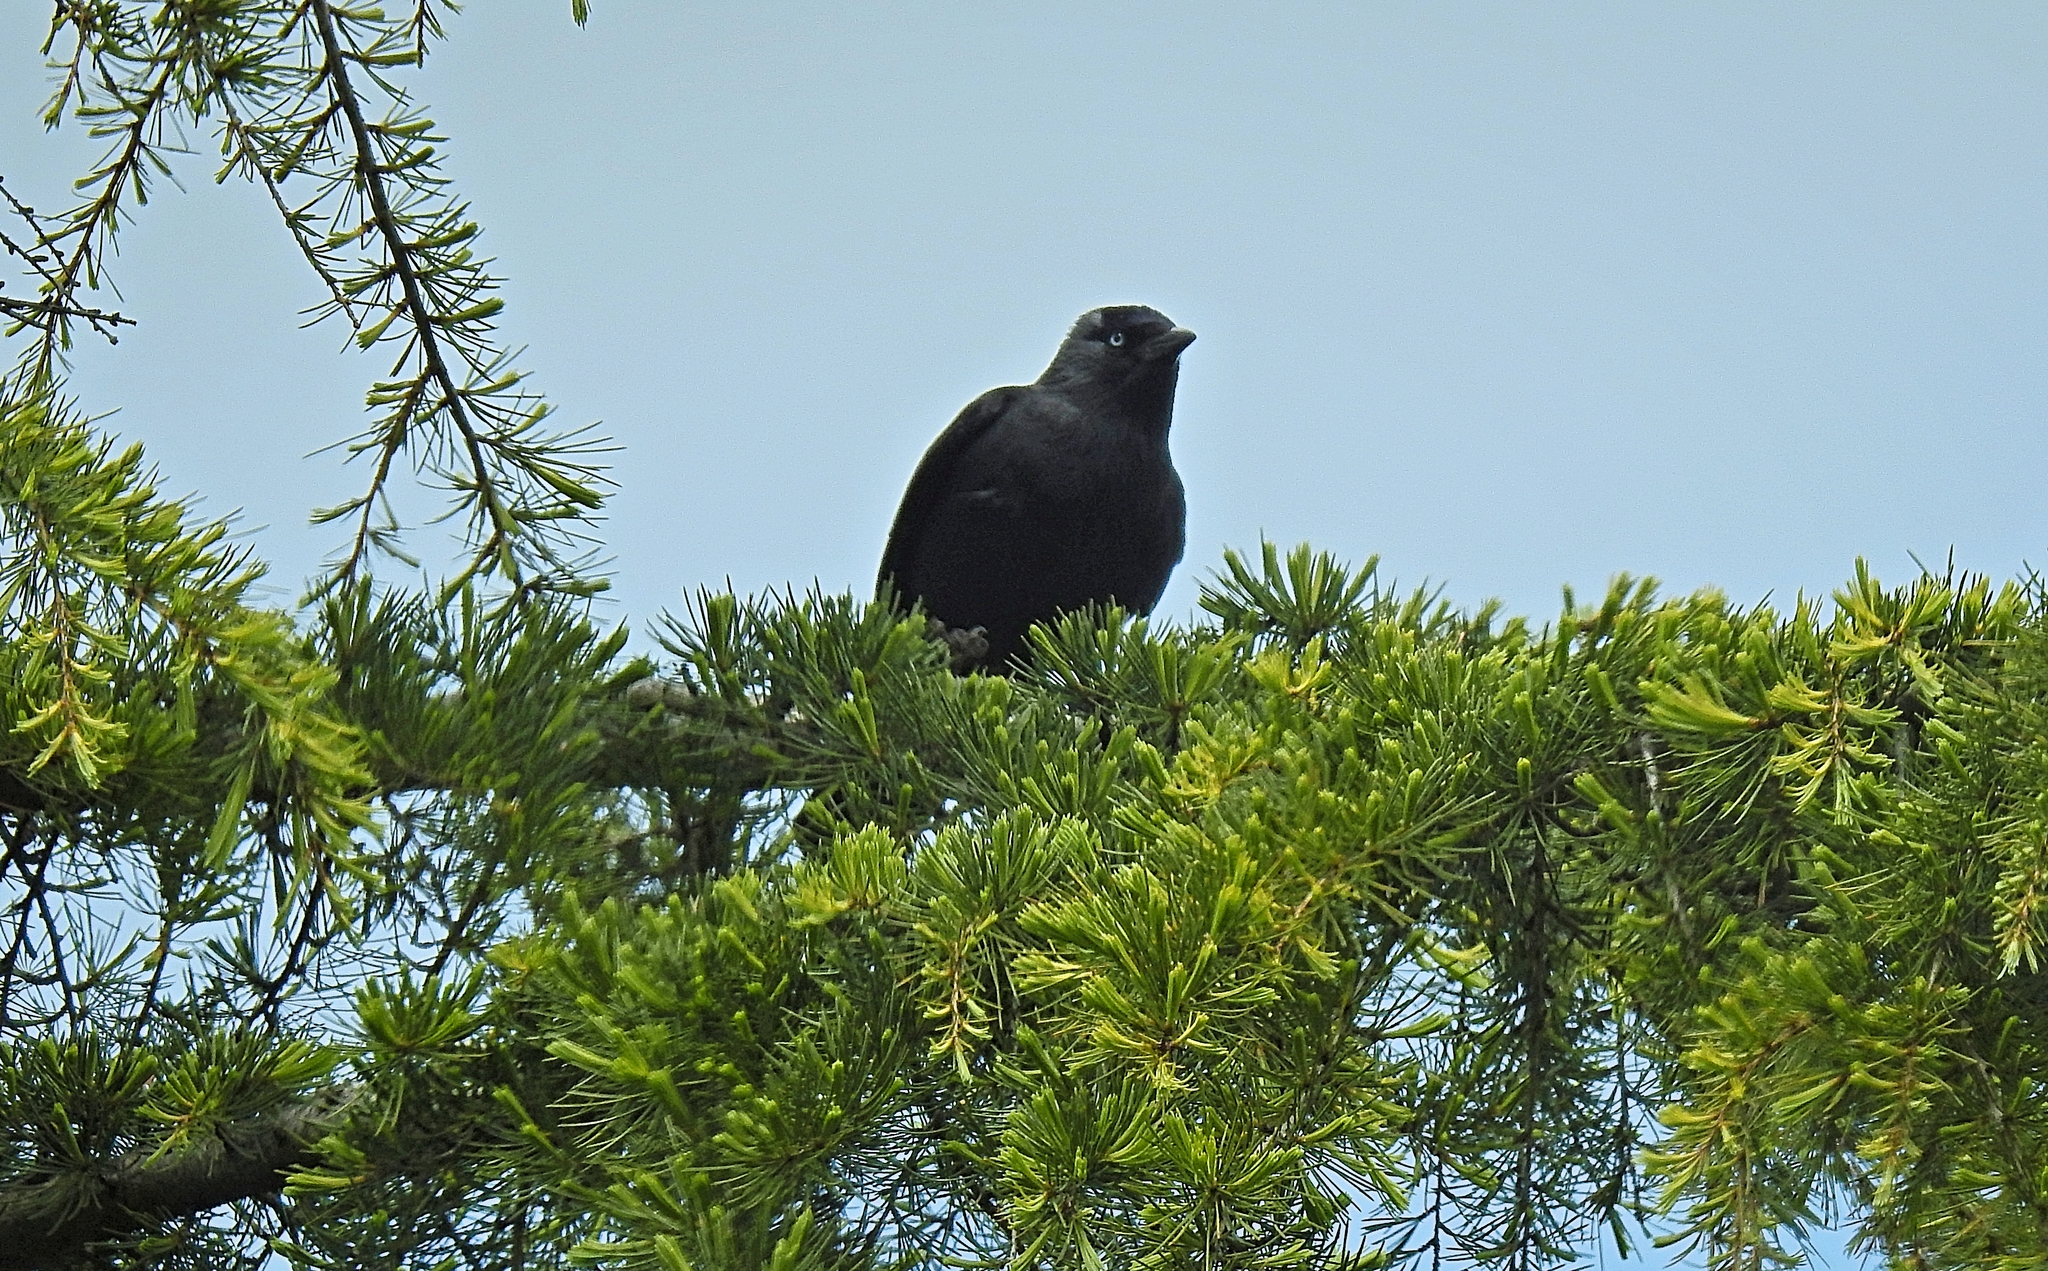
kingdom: Animalia
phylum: Chordata
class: Aves
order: Passeriformes
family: Corvidae
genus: Coloeus
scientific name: Coloeus monedula
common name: Western jackdaw
